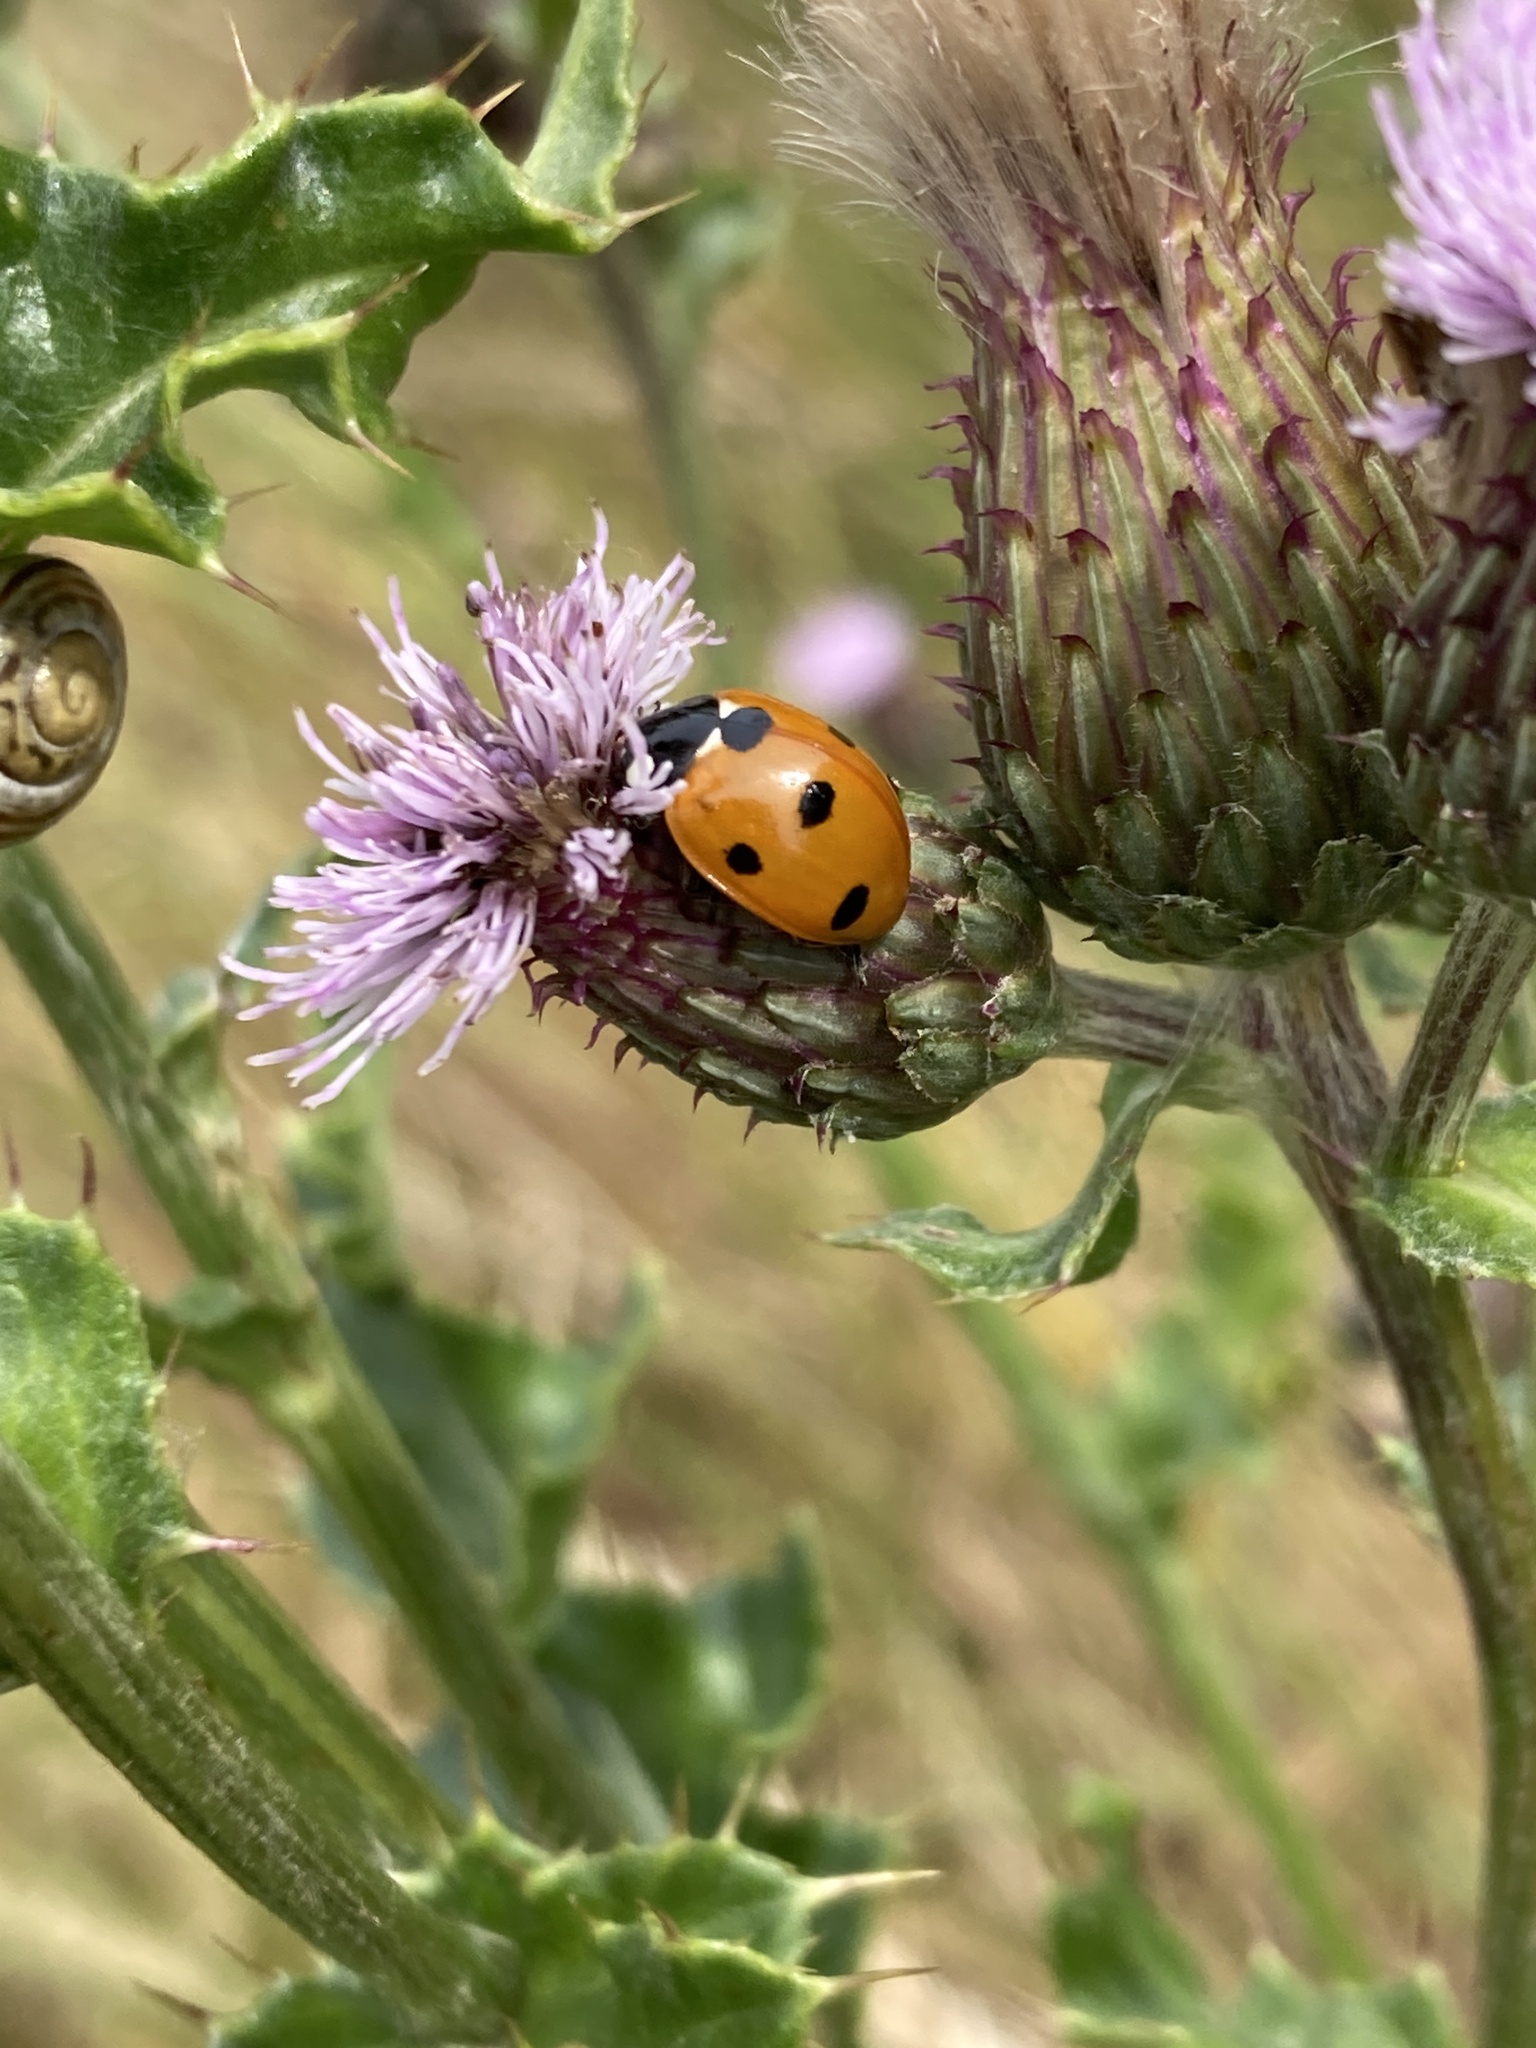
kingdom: Animalia
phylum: Arthropoda
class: Insecta
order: Coleoptera
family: Coccinellidae
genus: Coccinella
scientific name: Coccinella septempunctata
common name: Sevenspotted lady beetle
